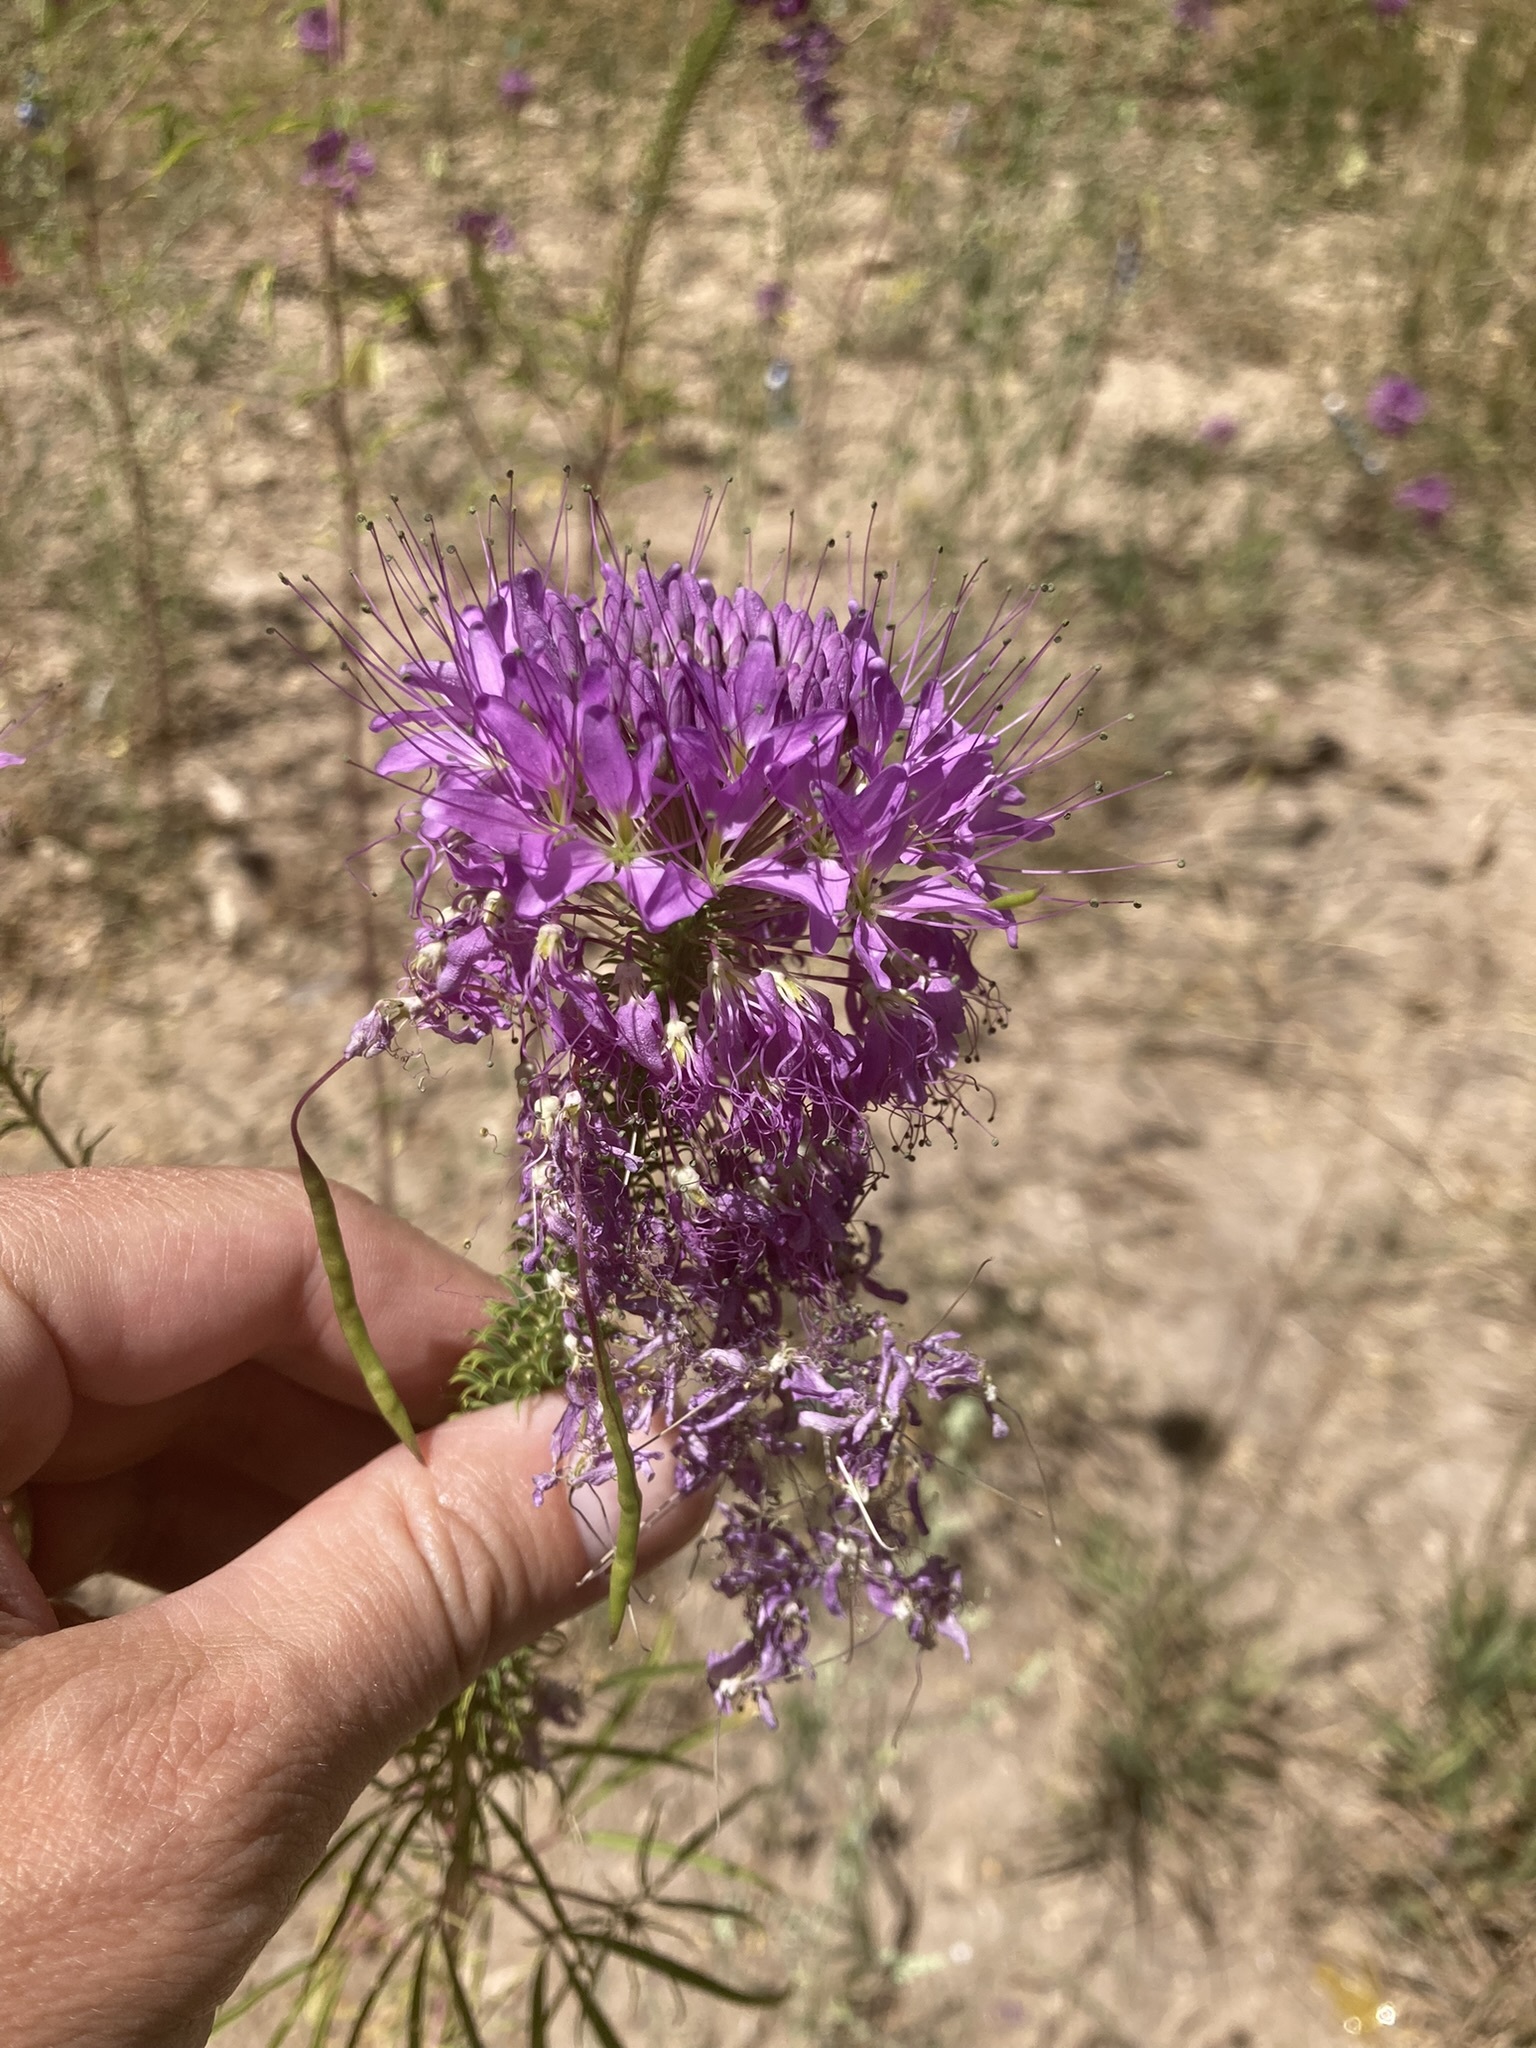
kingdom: Plantae
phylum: Tracheophyta
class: Magnoliopsida
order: Brassicales
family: Cleomaceae
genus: Cleomella
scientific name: Cleomella serrulata
